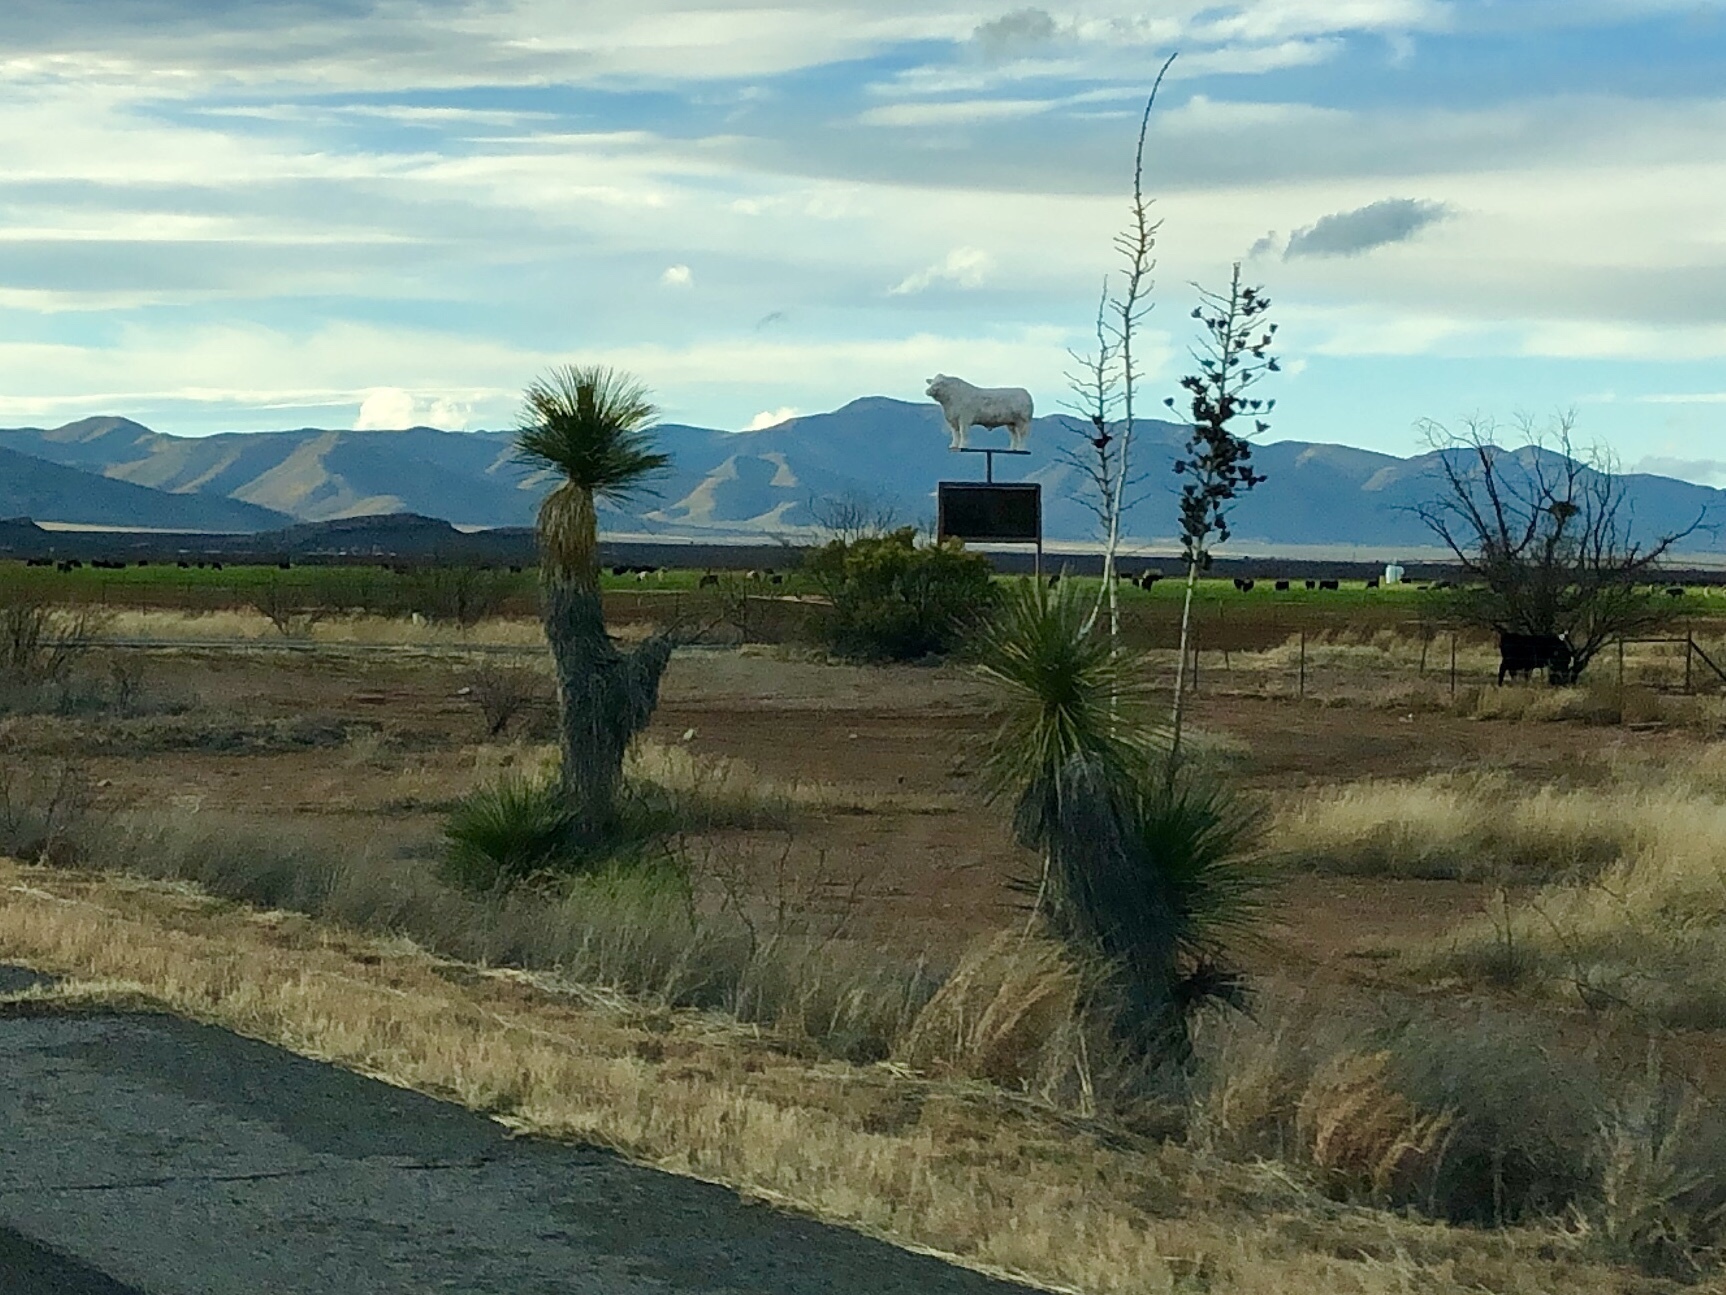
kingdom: Plantae
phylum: Tracheophyta
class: Liliopsida
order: Asparagales
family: Asparagaceae
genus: Yucca
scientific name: Yucca elata
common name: Palmella
